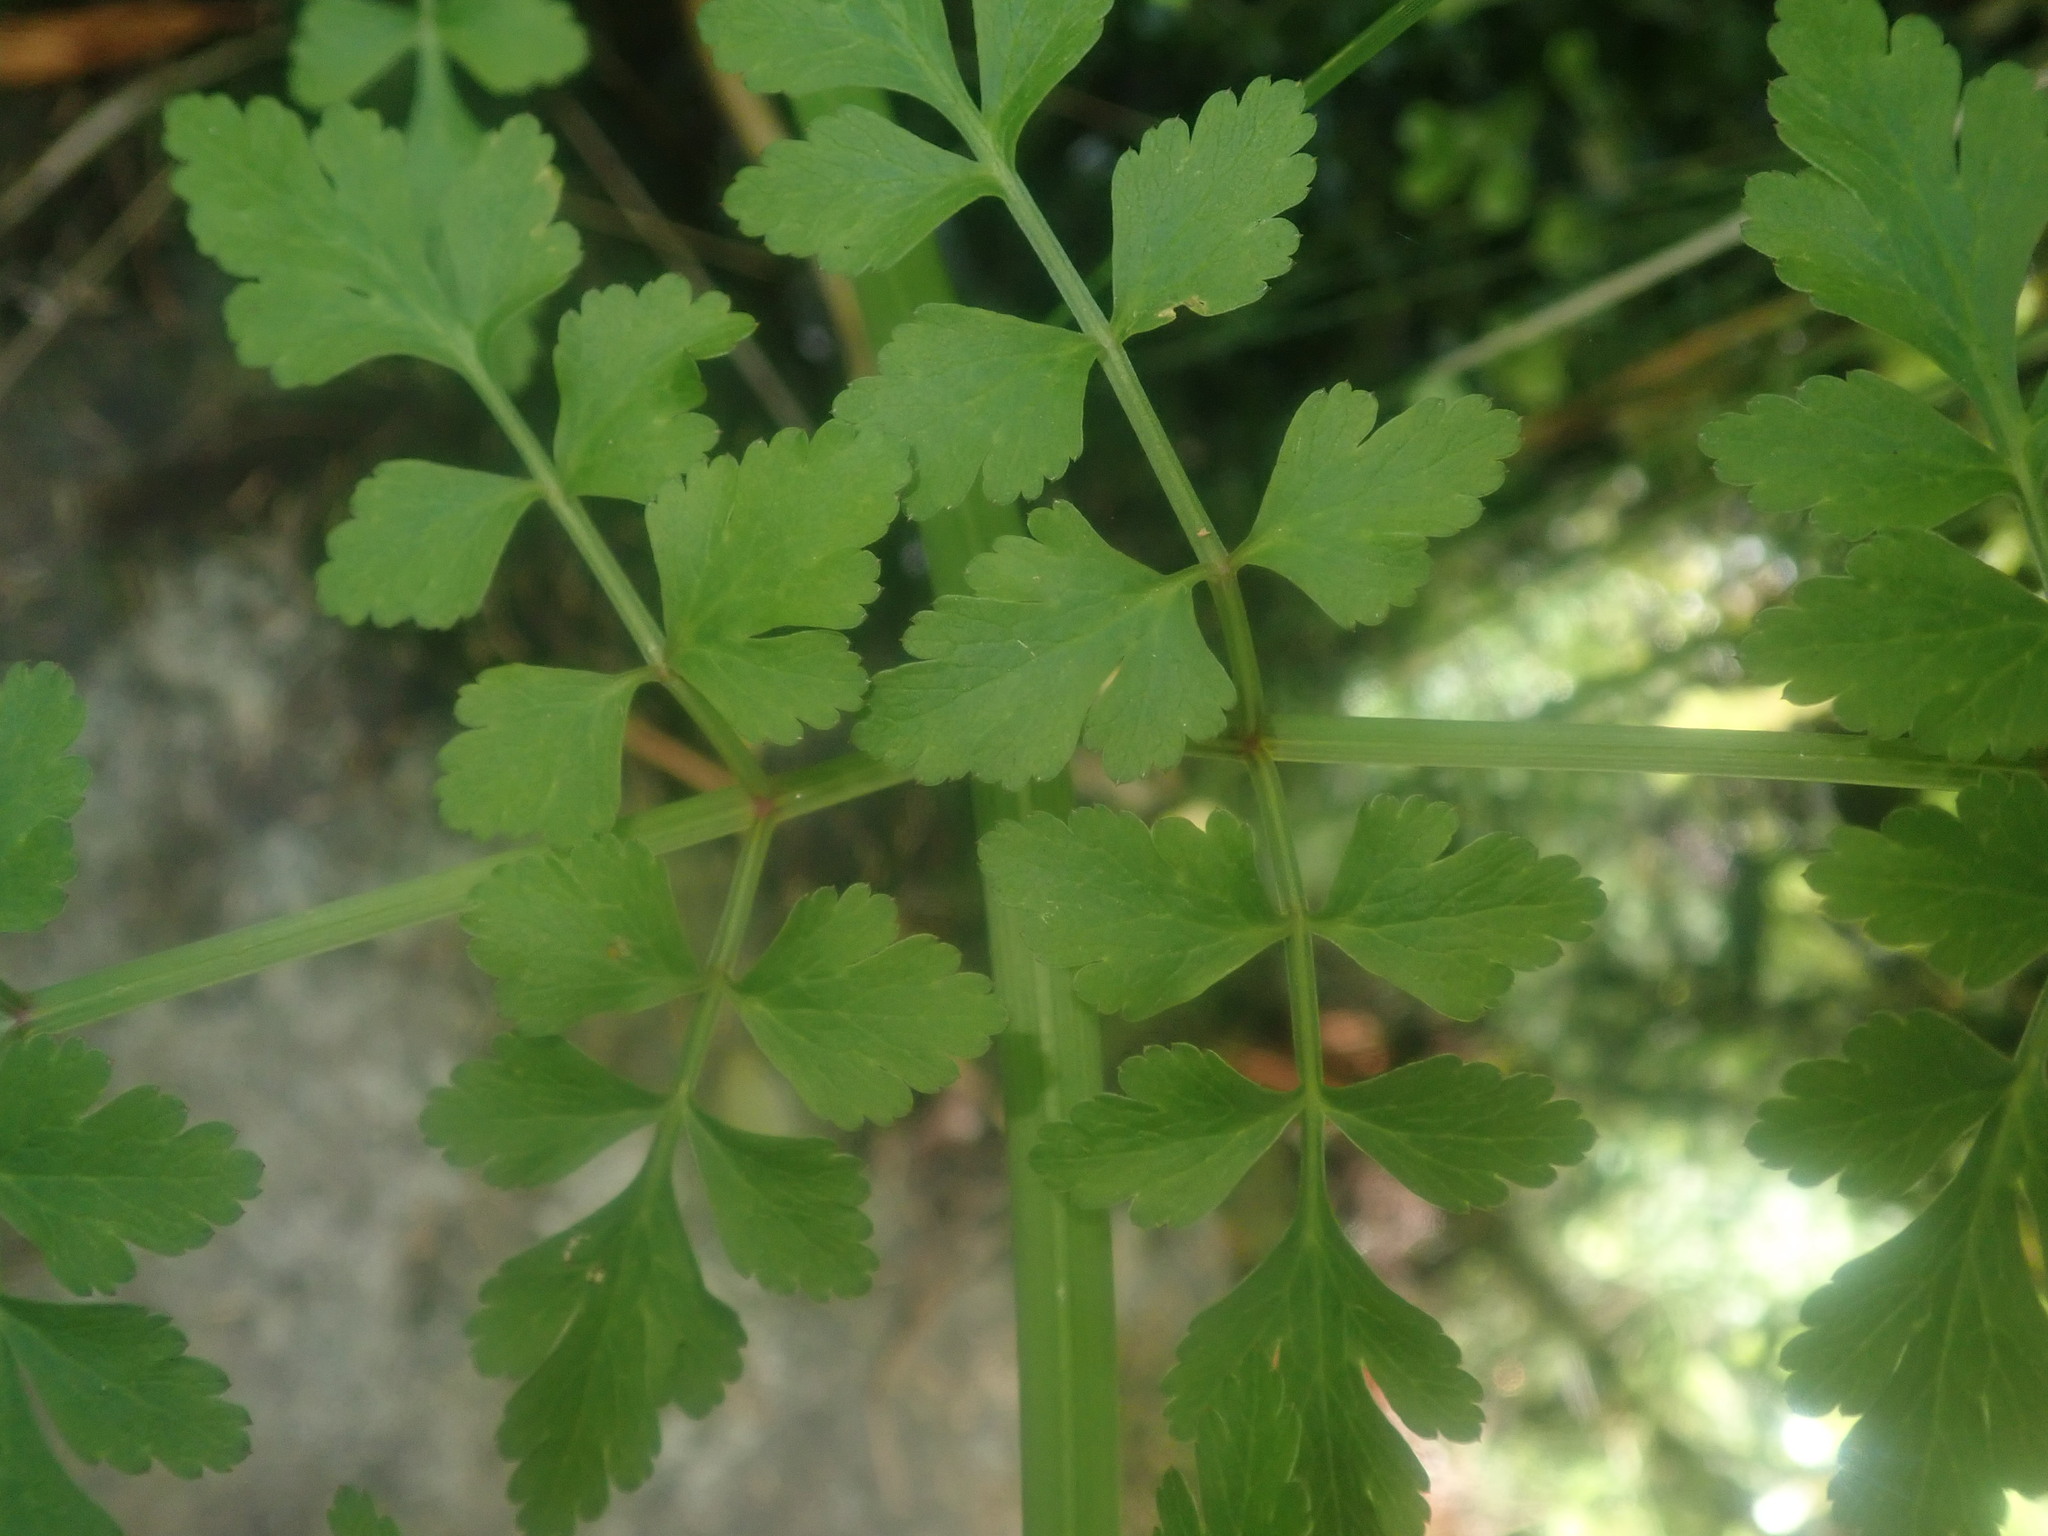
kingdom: Plantae
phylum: Tracheophyta
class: Magnoliopsida
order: Apiales
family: Apiaceae
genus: Oenanthe
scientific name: Oenanthe divaricata
